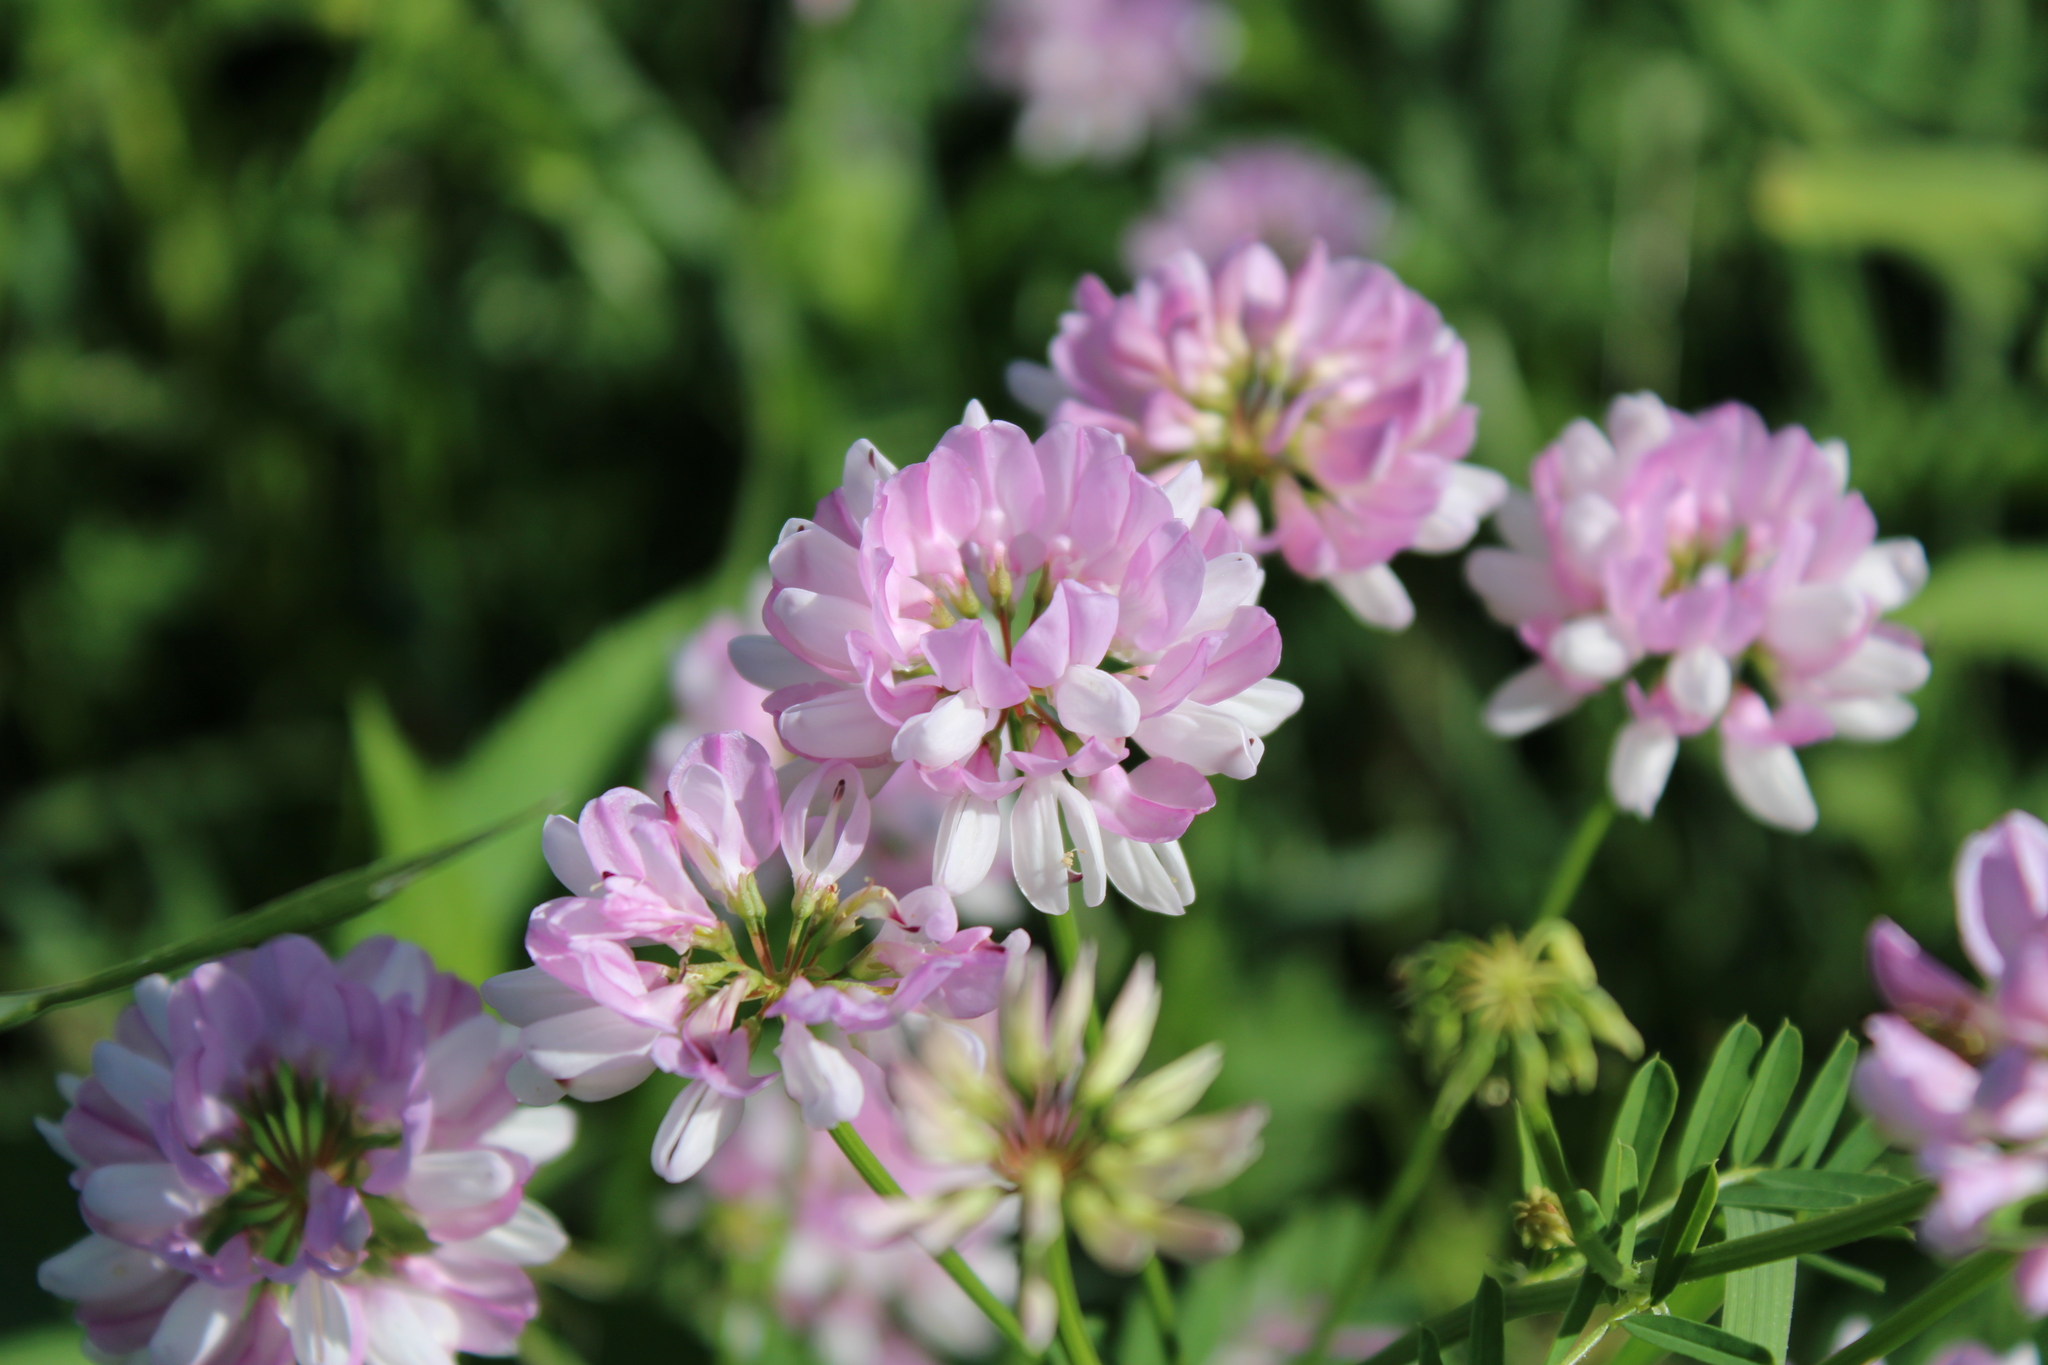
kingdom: Plantae
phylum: Tracheophyta
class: Magnoliopsida
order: Fabales
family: Fabaceae
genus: Coronilla
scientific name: Coronilla varia
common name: Crownvetch
